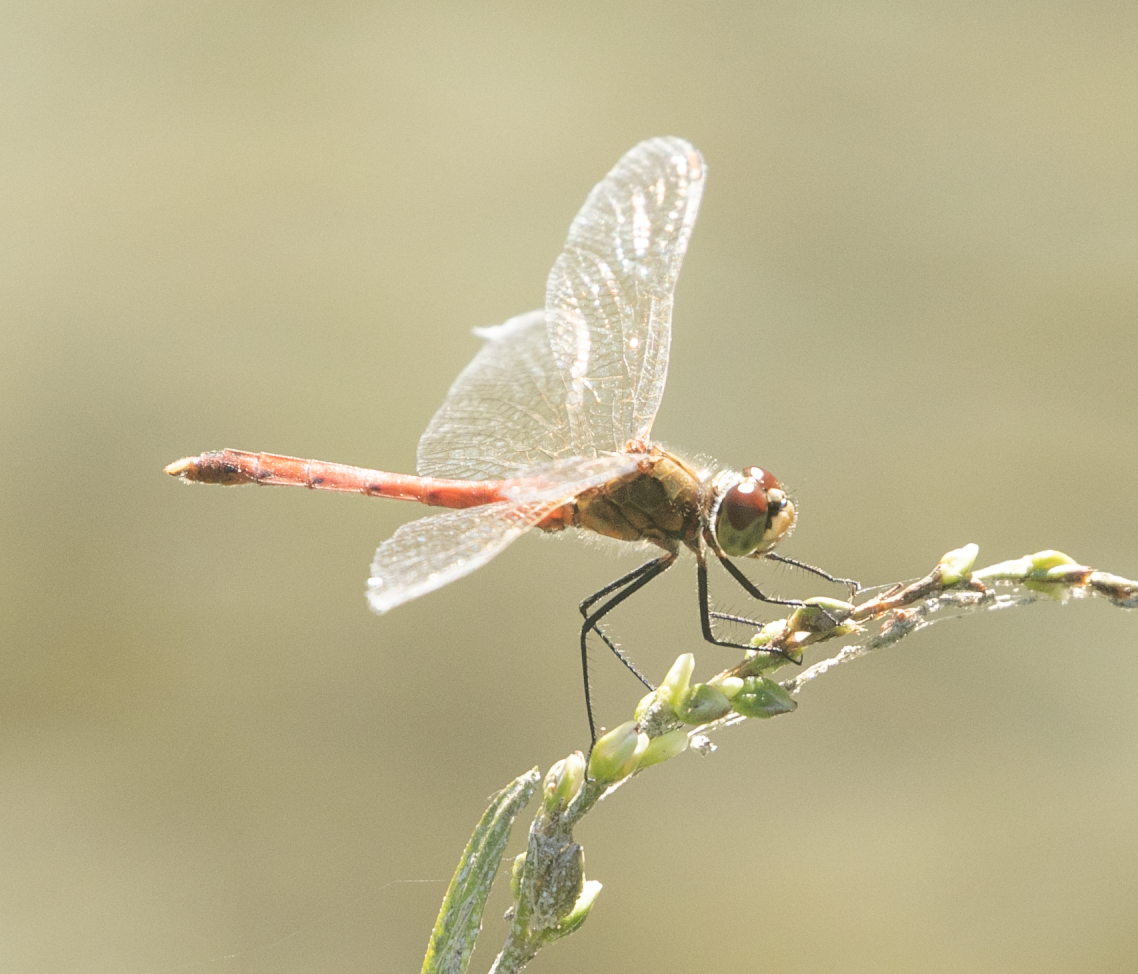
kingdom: Animalia
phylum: Arthropoda
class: Insecta
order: Odonata
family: Libellulidae
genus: Sympetrum
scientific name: Sympetrum depressiusculum
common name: Spotted darter
